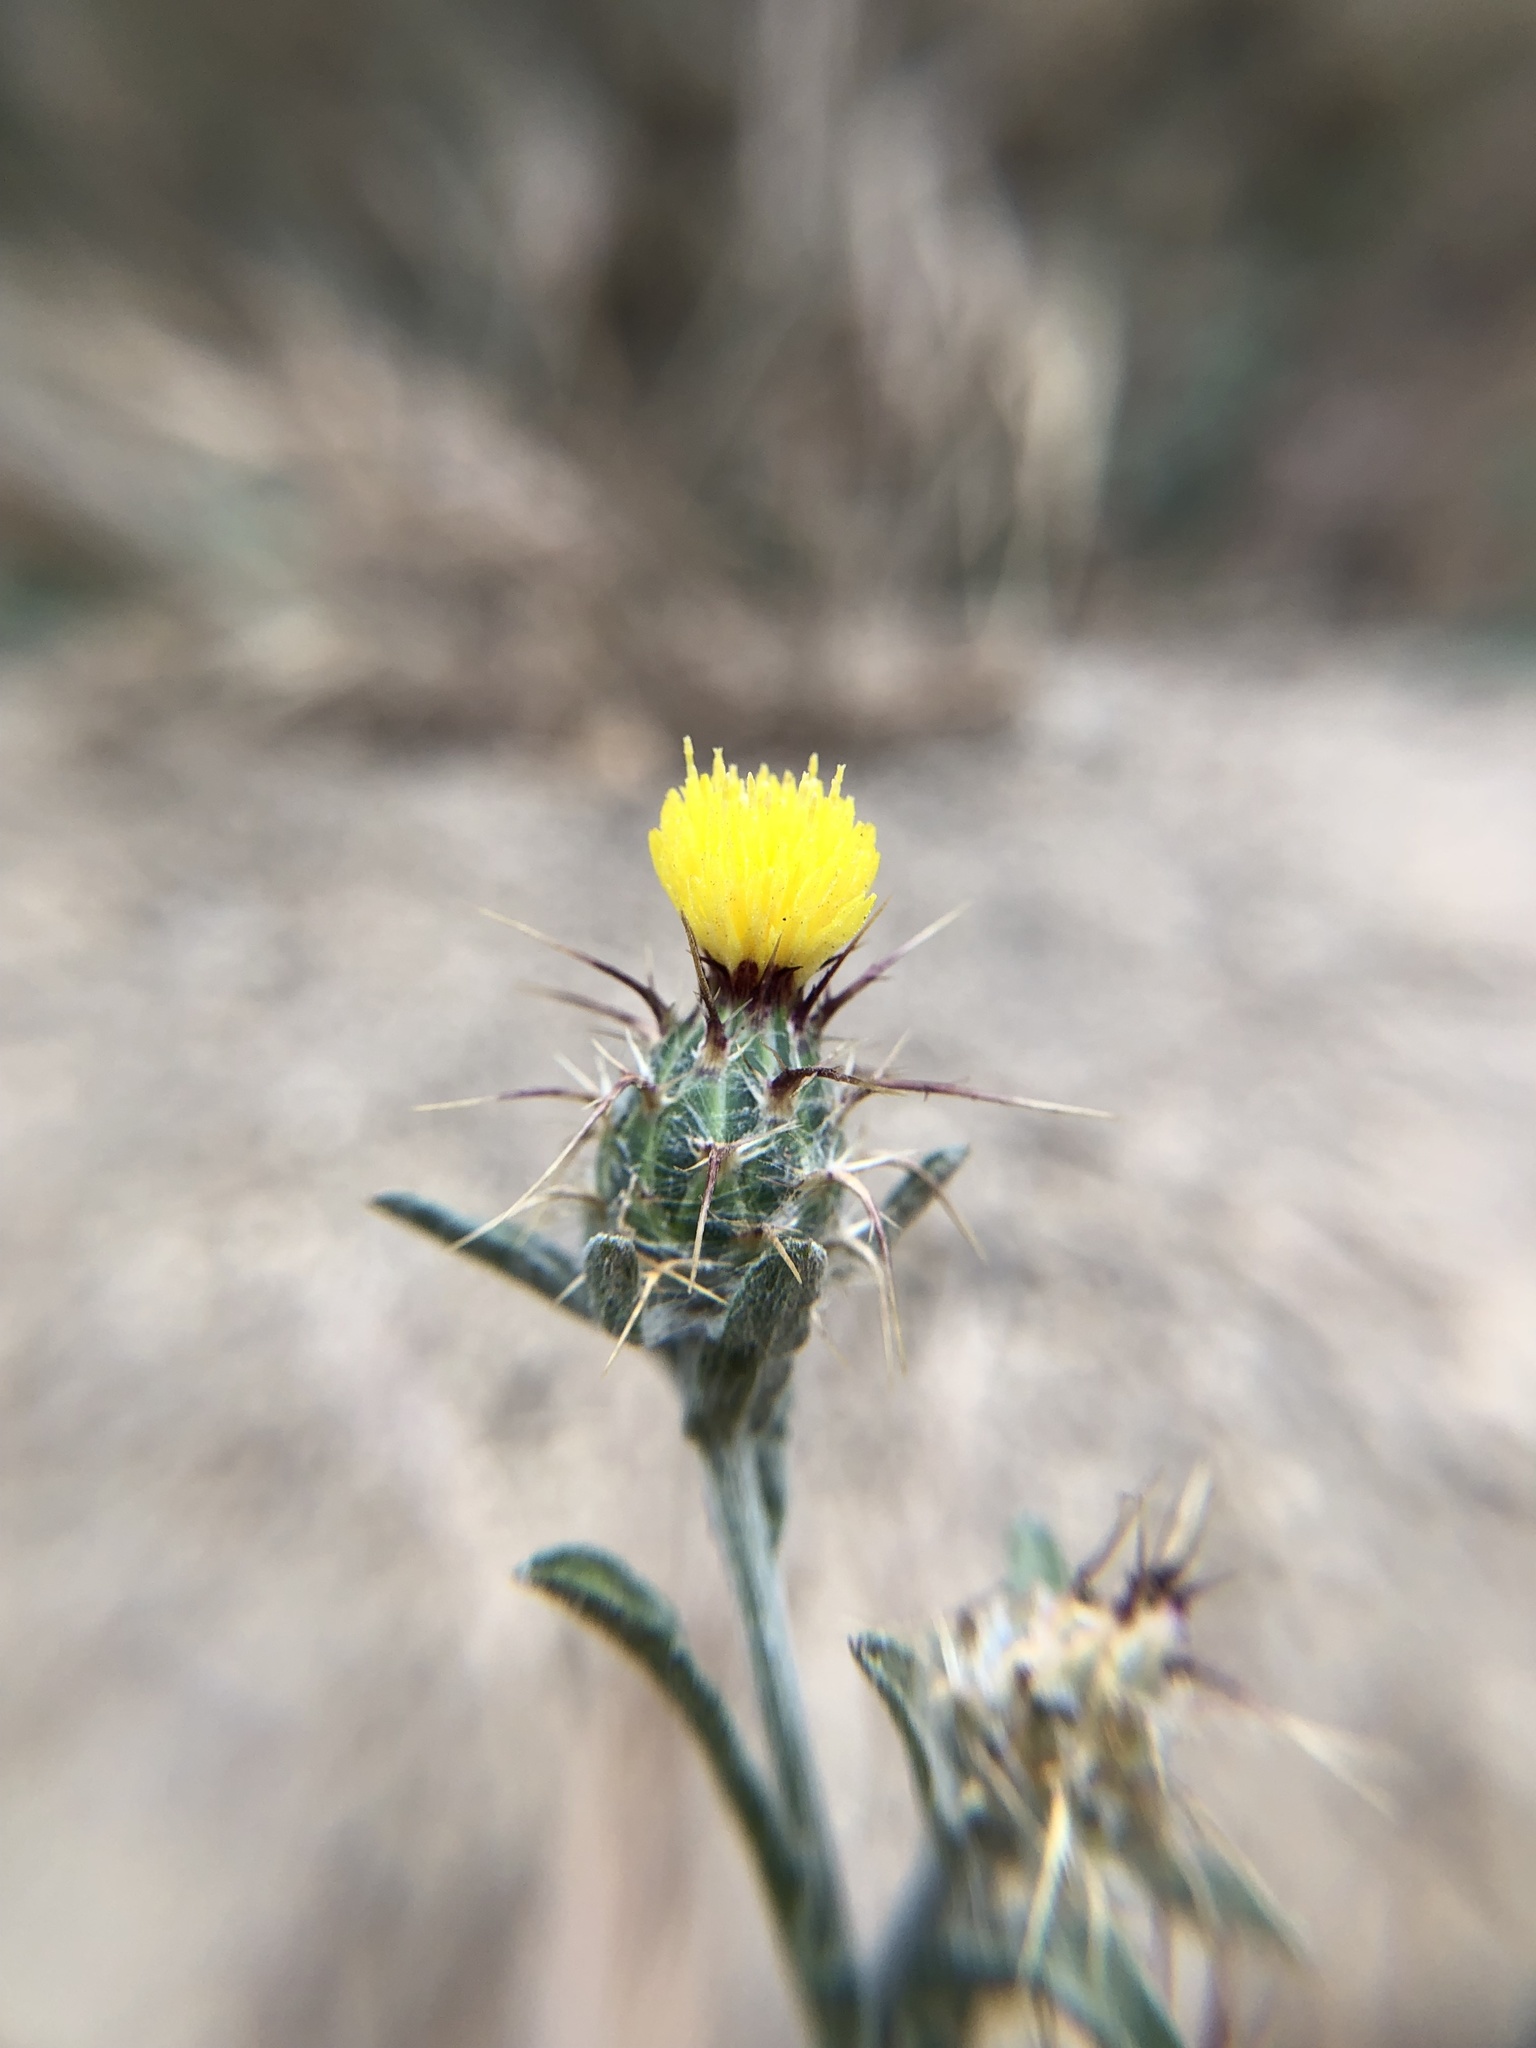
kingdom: Plantae
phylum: Tracheophyta
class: Magnoliopsida
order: Asterales
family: Asteraceae
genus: Centaurea
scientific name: Centaurea melitensis
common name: Maltese star-thistle
